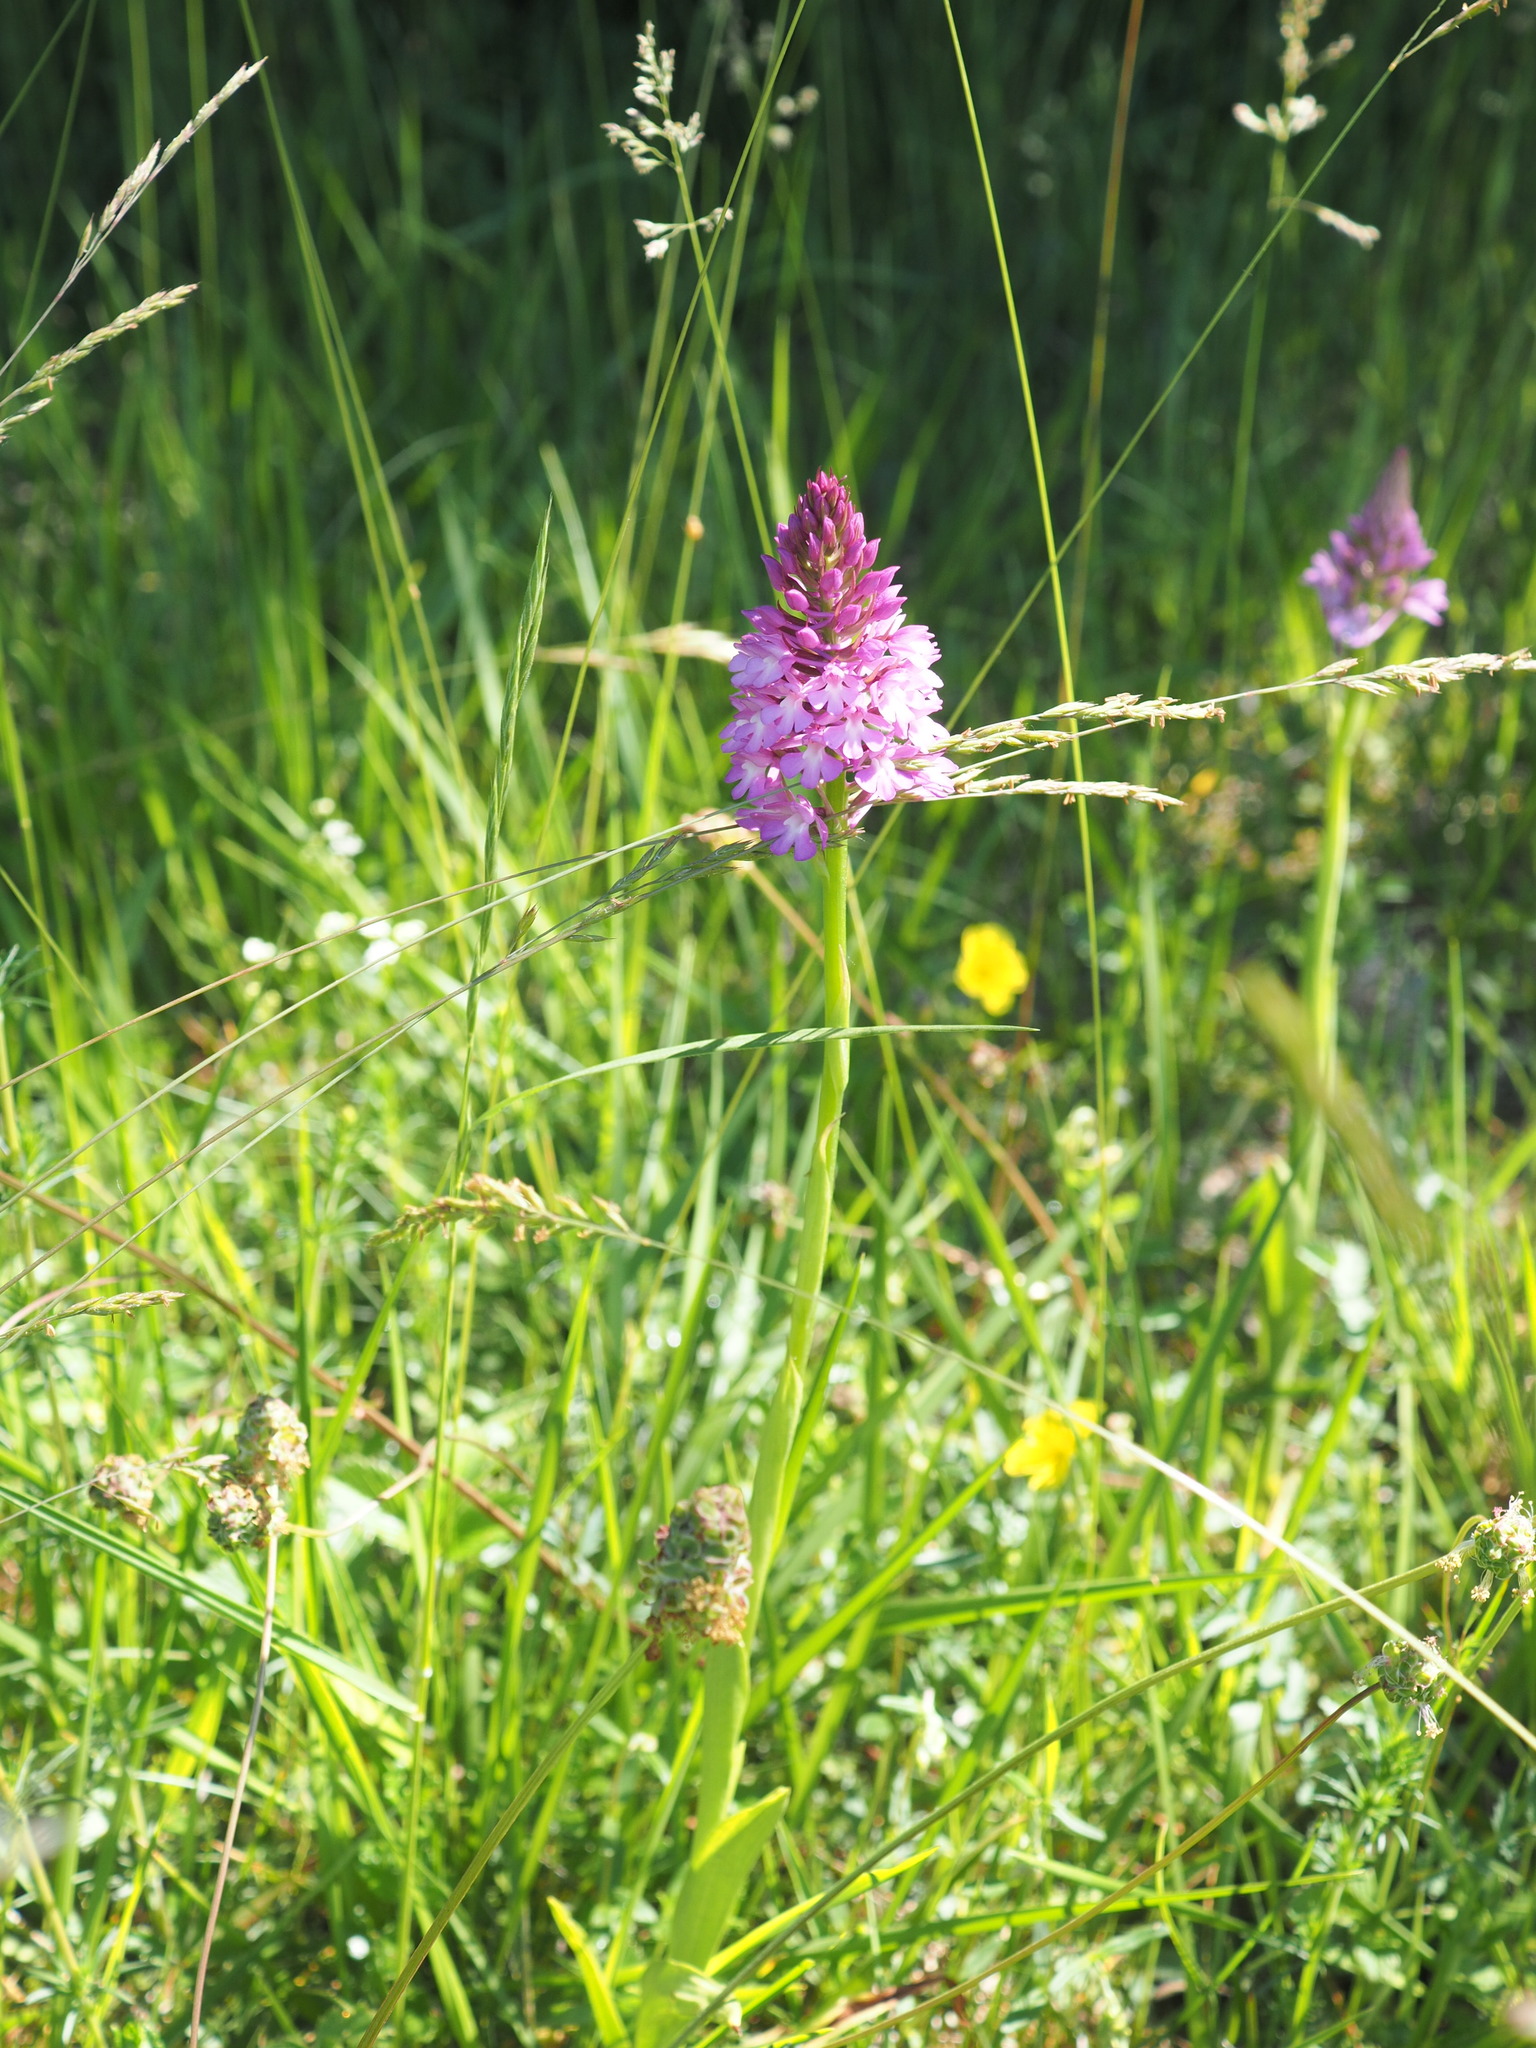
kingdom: Plantae
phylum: Tracheophyta
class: Liliopsida
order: Asparagales
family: Orchidaceae
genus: Anacamptis
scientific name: Anacamptis pyramidalis
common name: Pyramidal orchid
